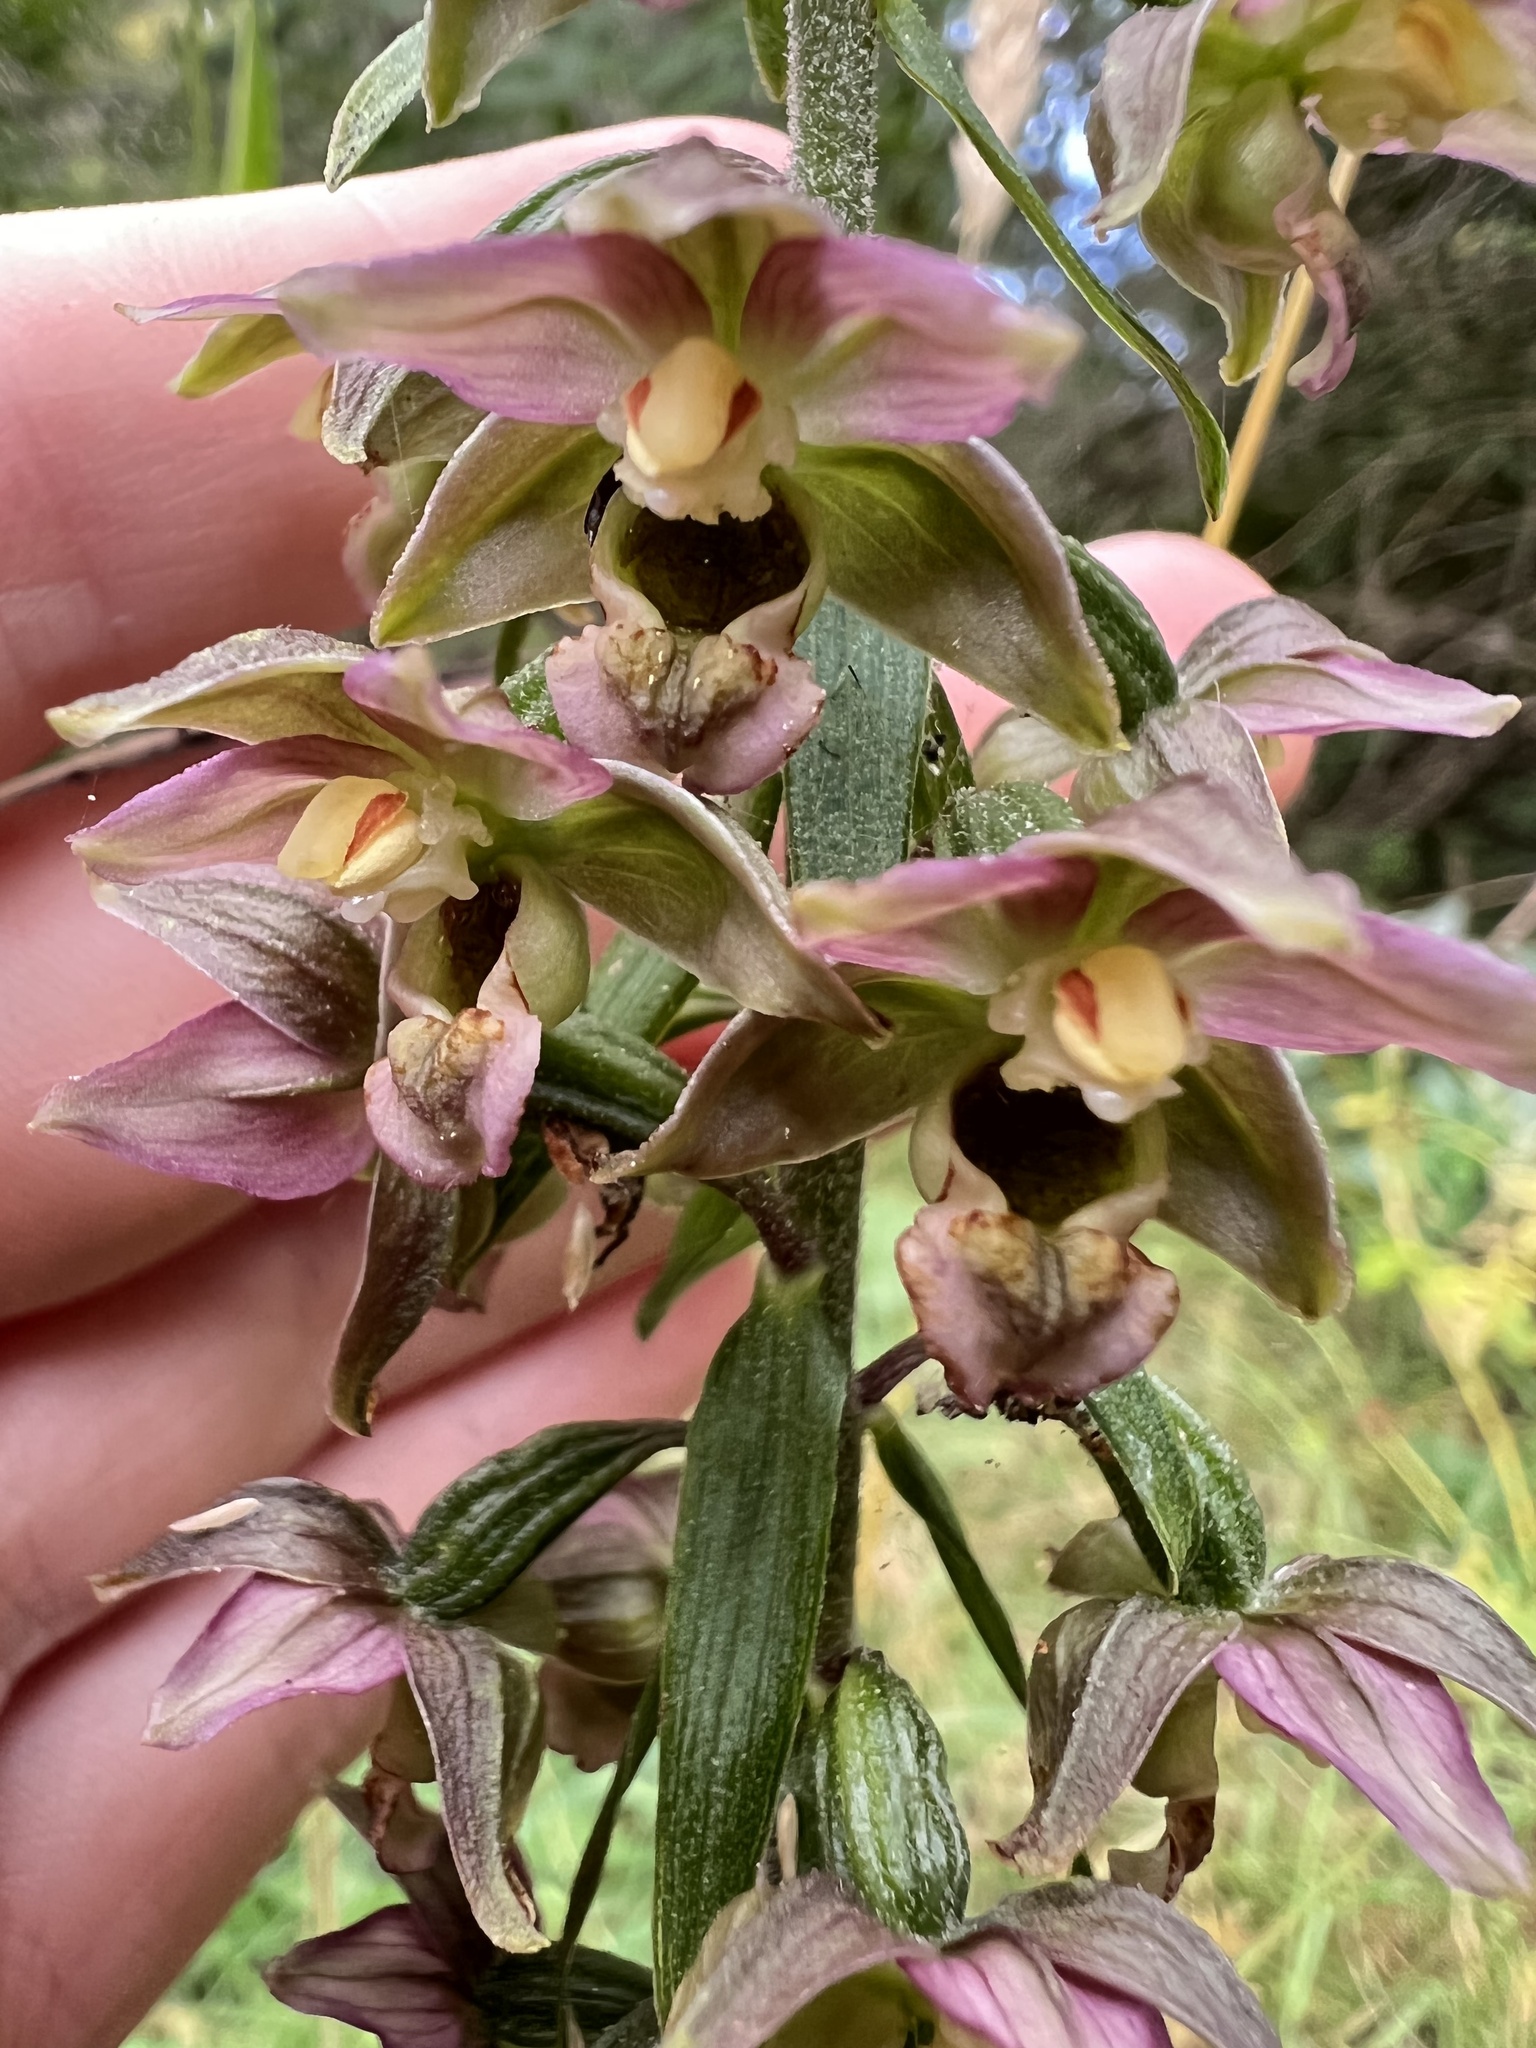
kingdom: Plantae
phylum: Tracheophyta
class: Liliopsida
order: Asparagales
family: Orchidaceae
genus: Epipactis
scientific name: Epipactis helleborine
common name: Broad-leaved helleborine
